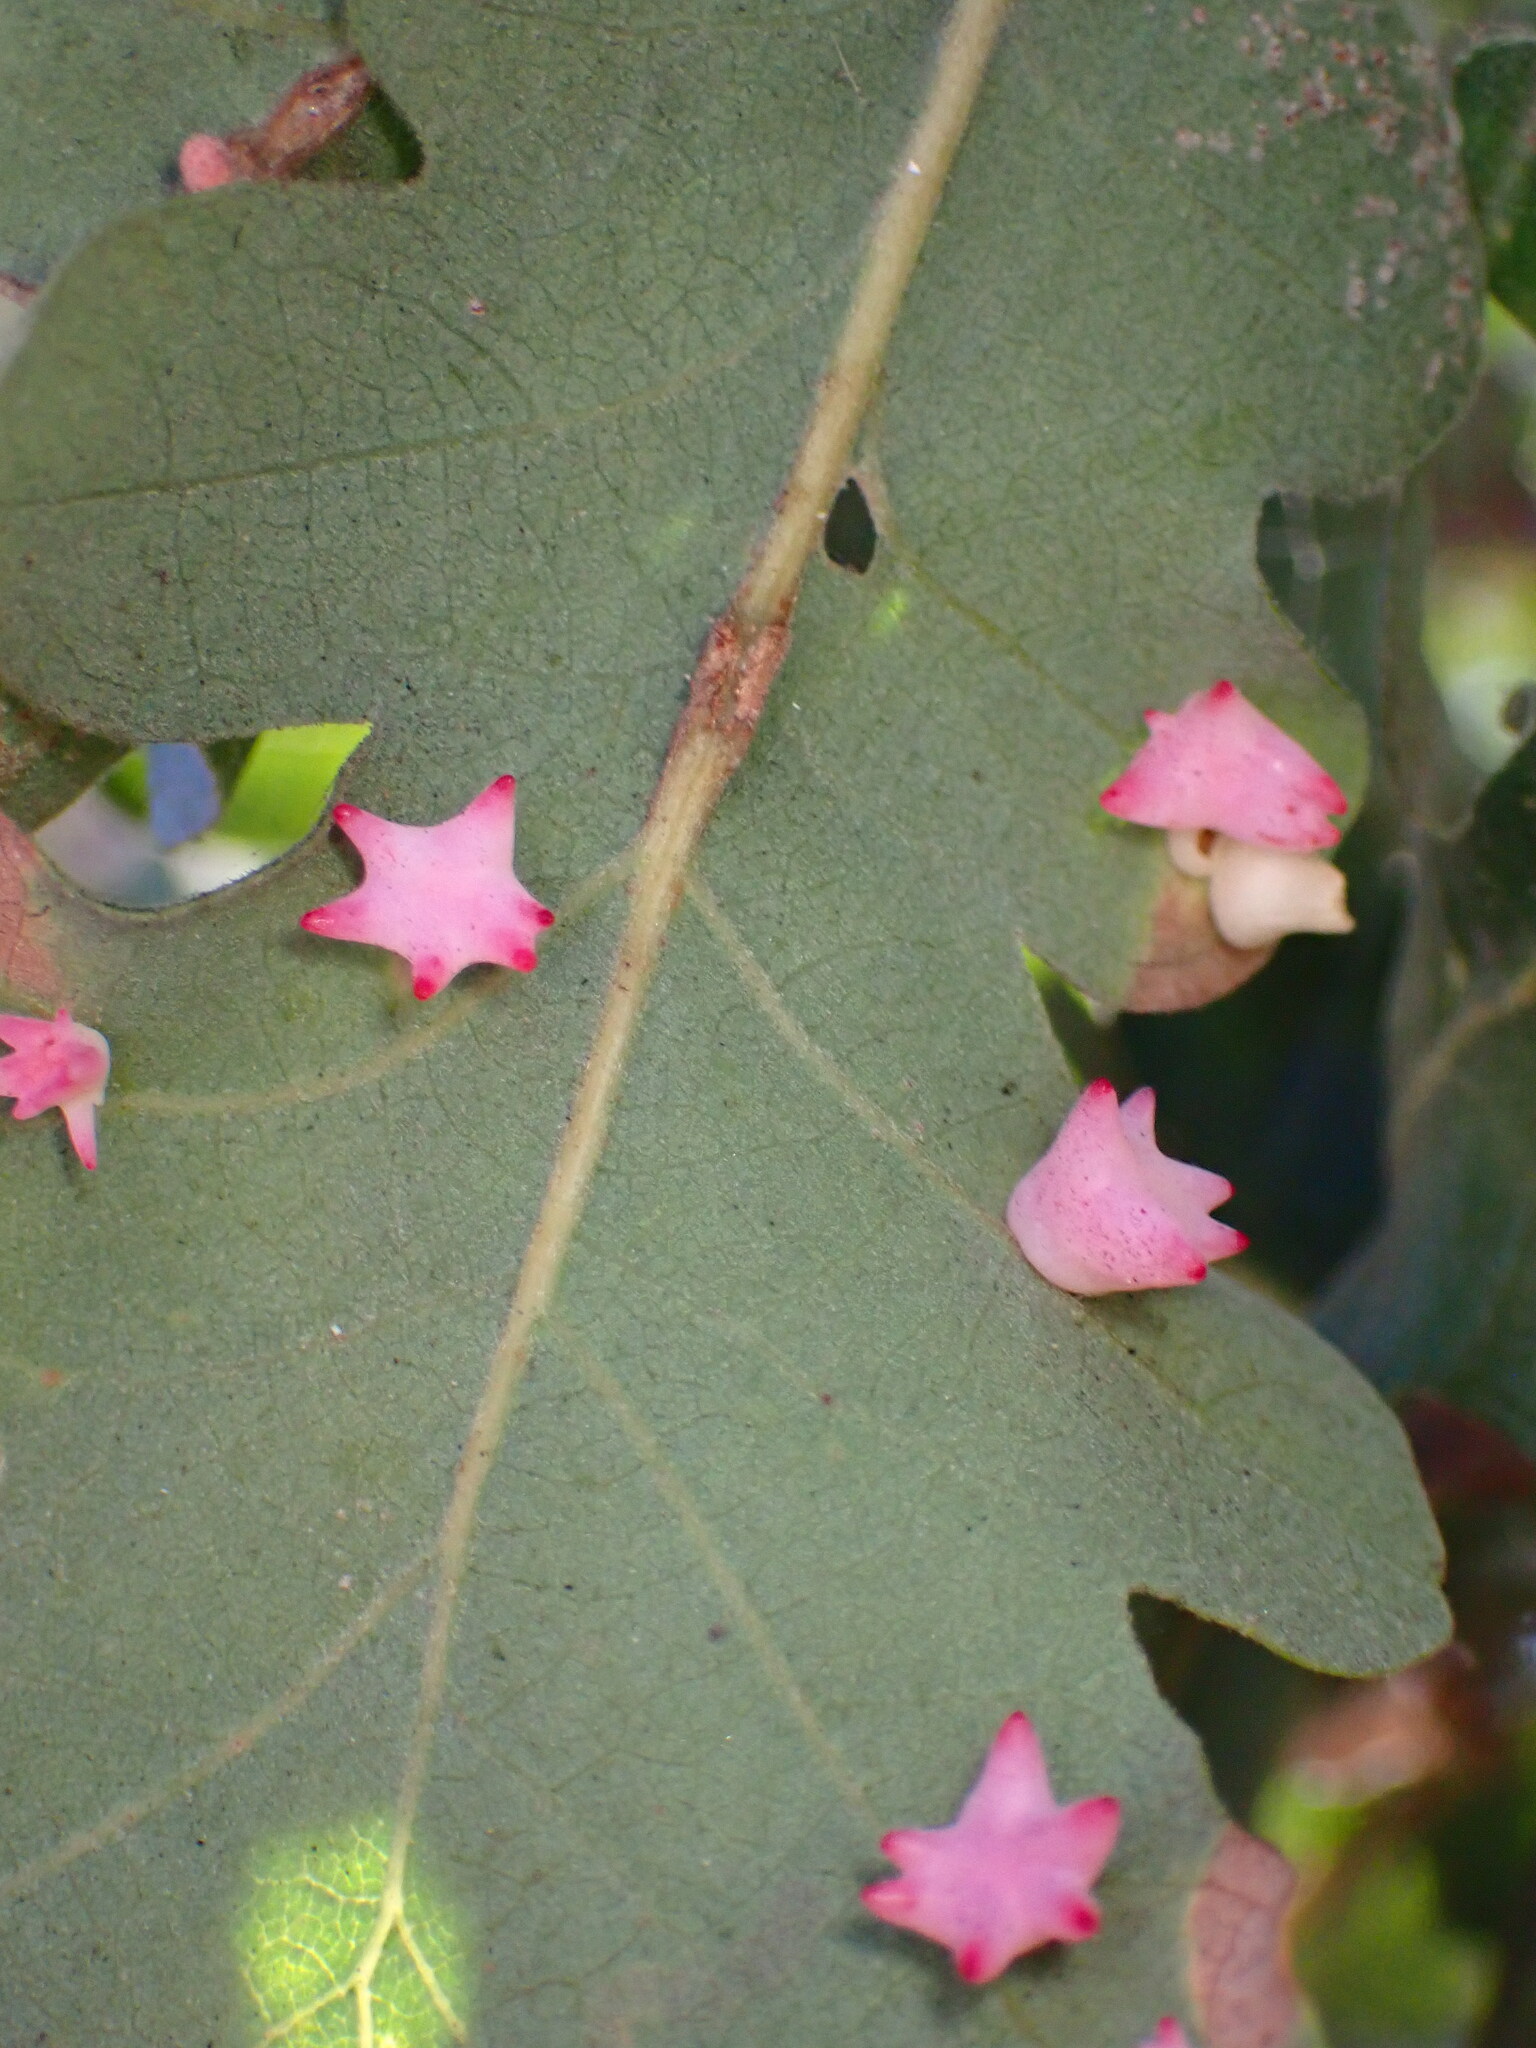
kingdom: Animalia
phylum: Arthropoda
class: Insecta
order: Hymenoptera
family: Cynipidae
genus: Cynips
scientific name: Cynips douglasi
